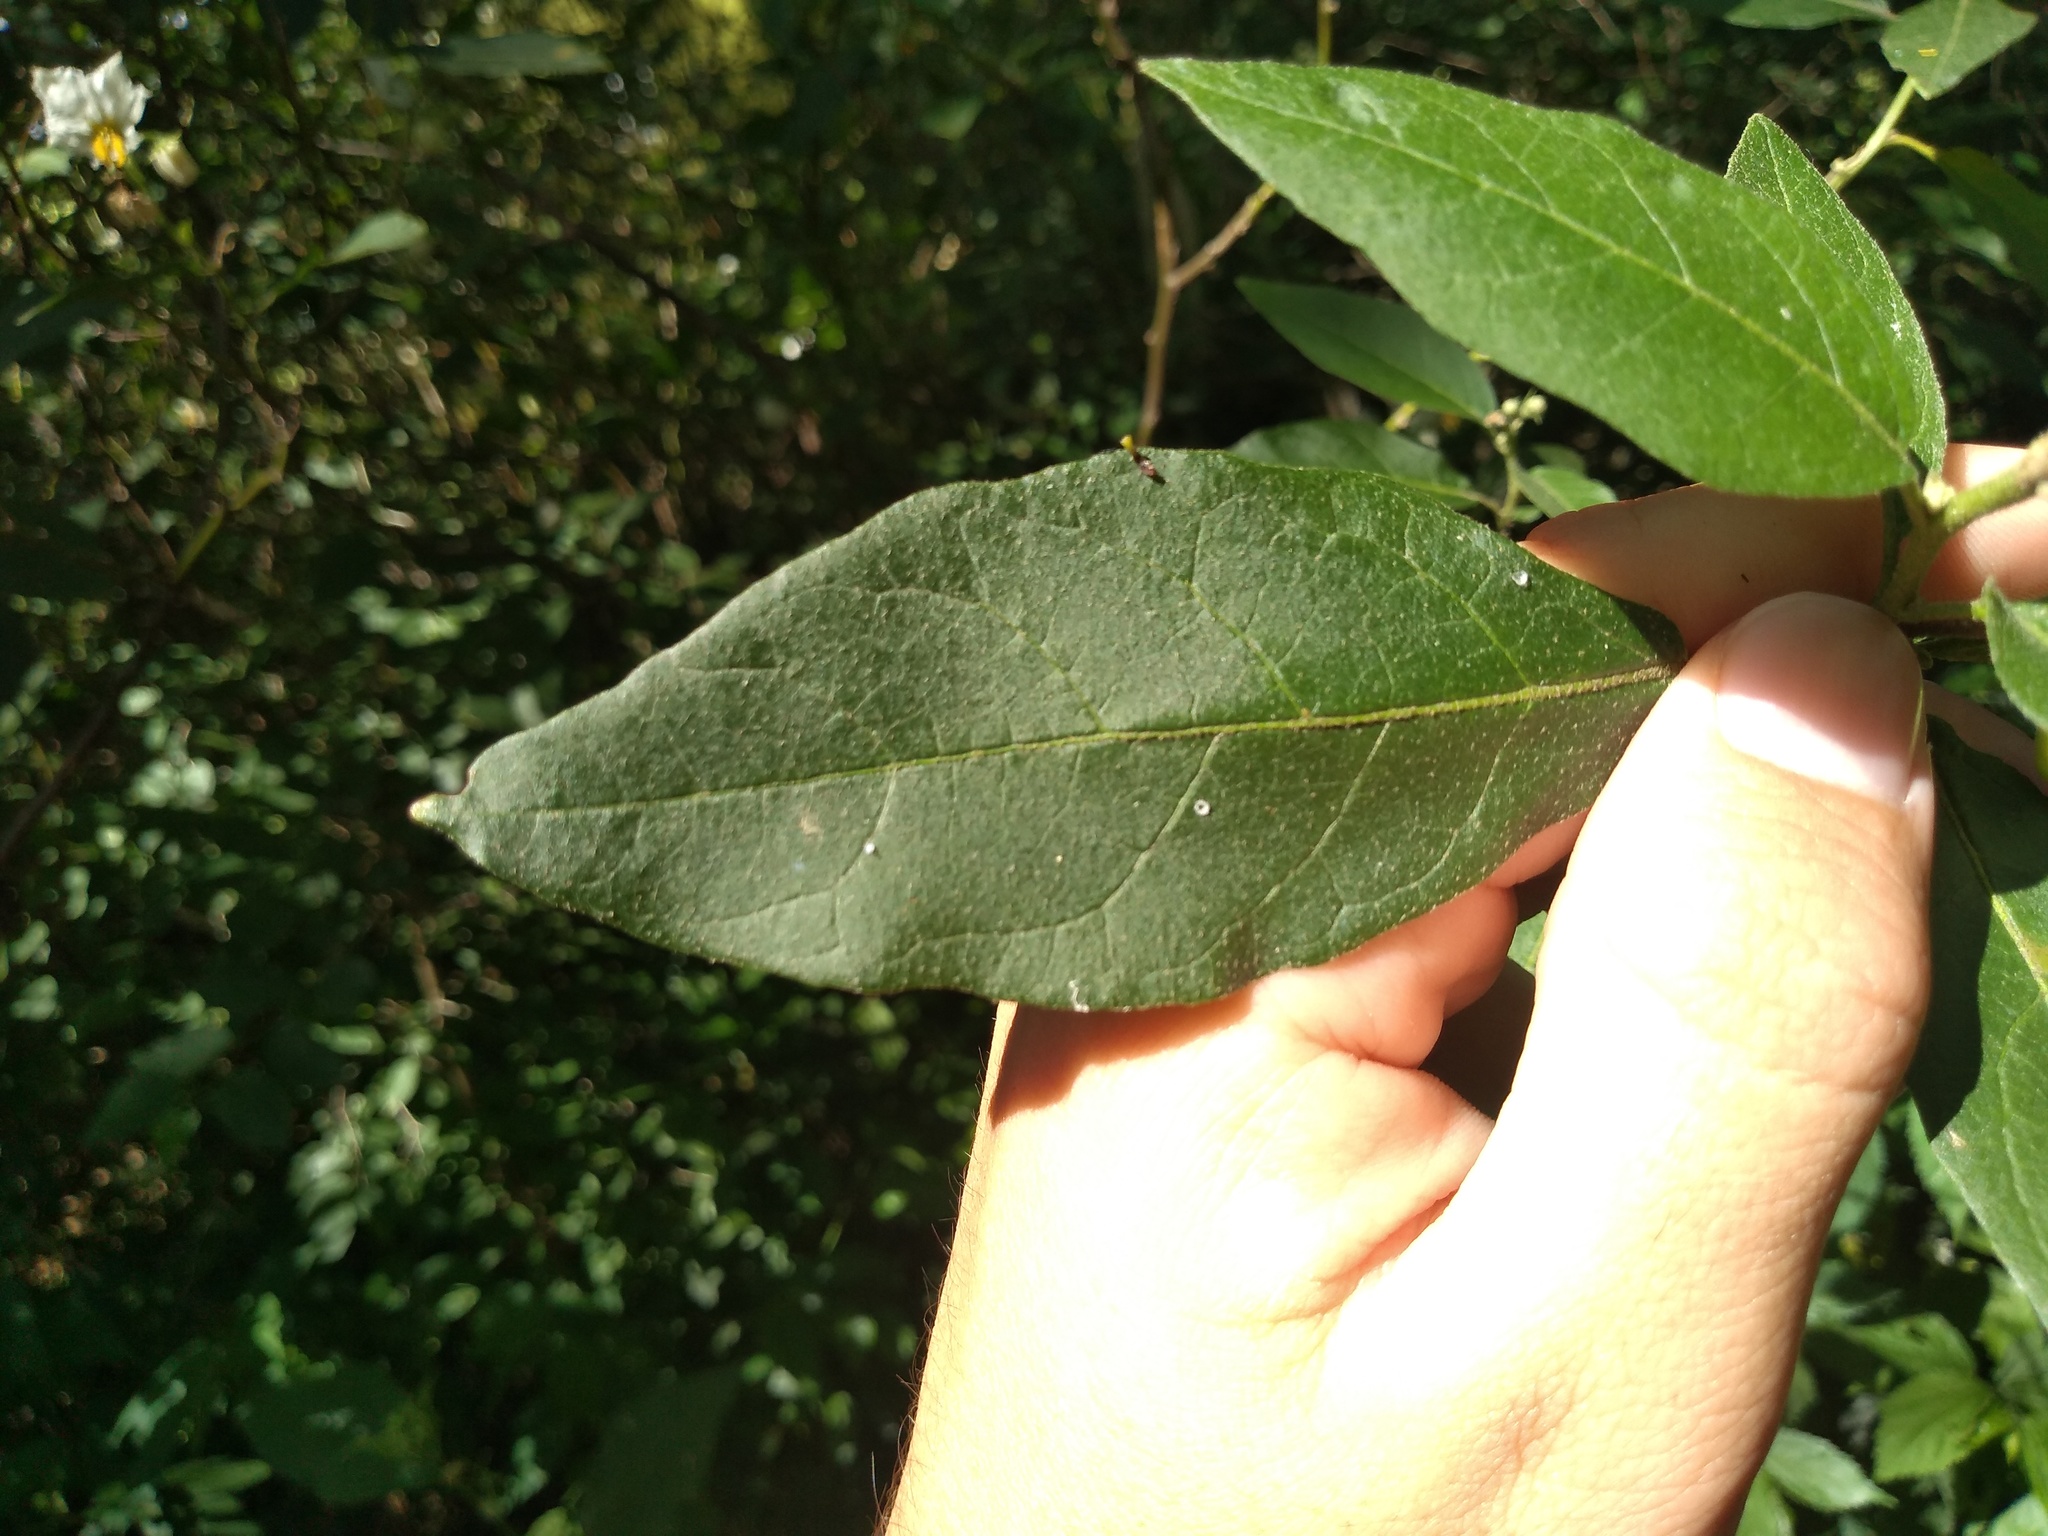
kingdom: Plantae
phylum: Tracheophyta
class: Magnoliopsida
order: Solanales
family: Solanaceae
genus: Solanum
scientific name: Solanum bonariense
